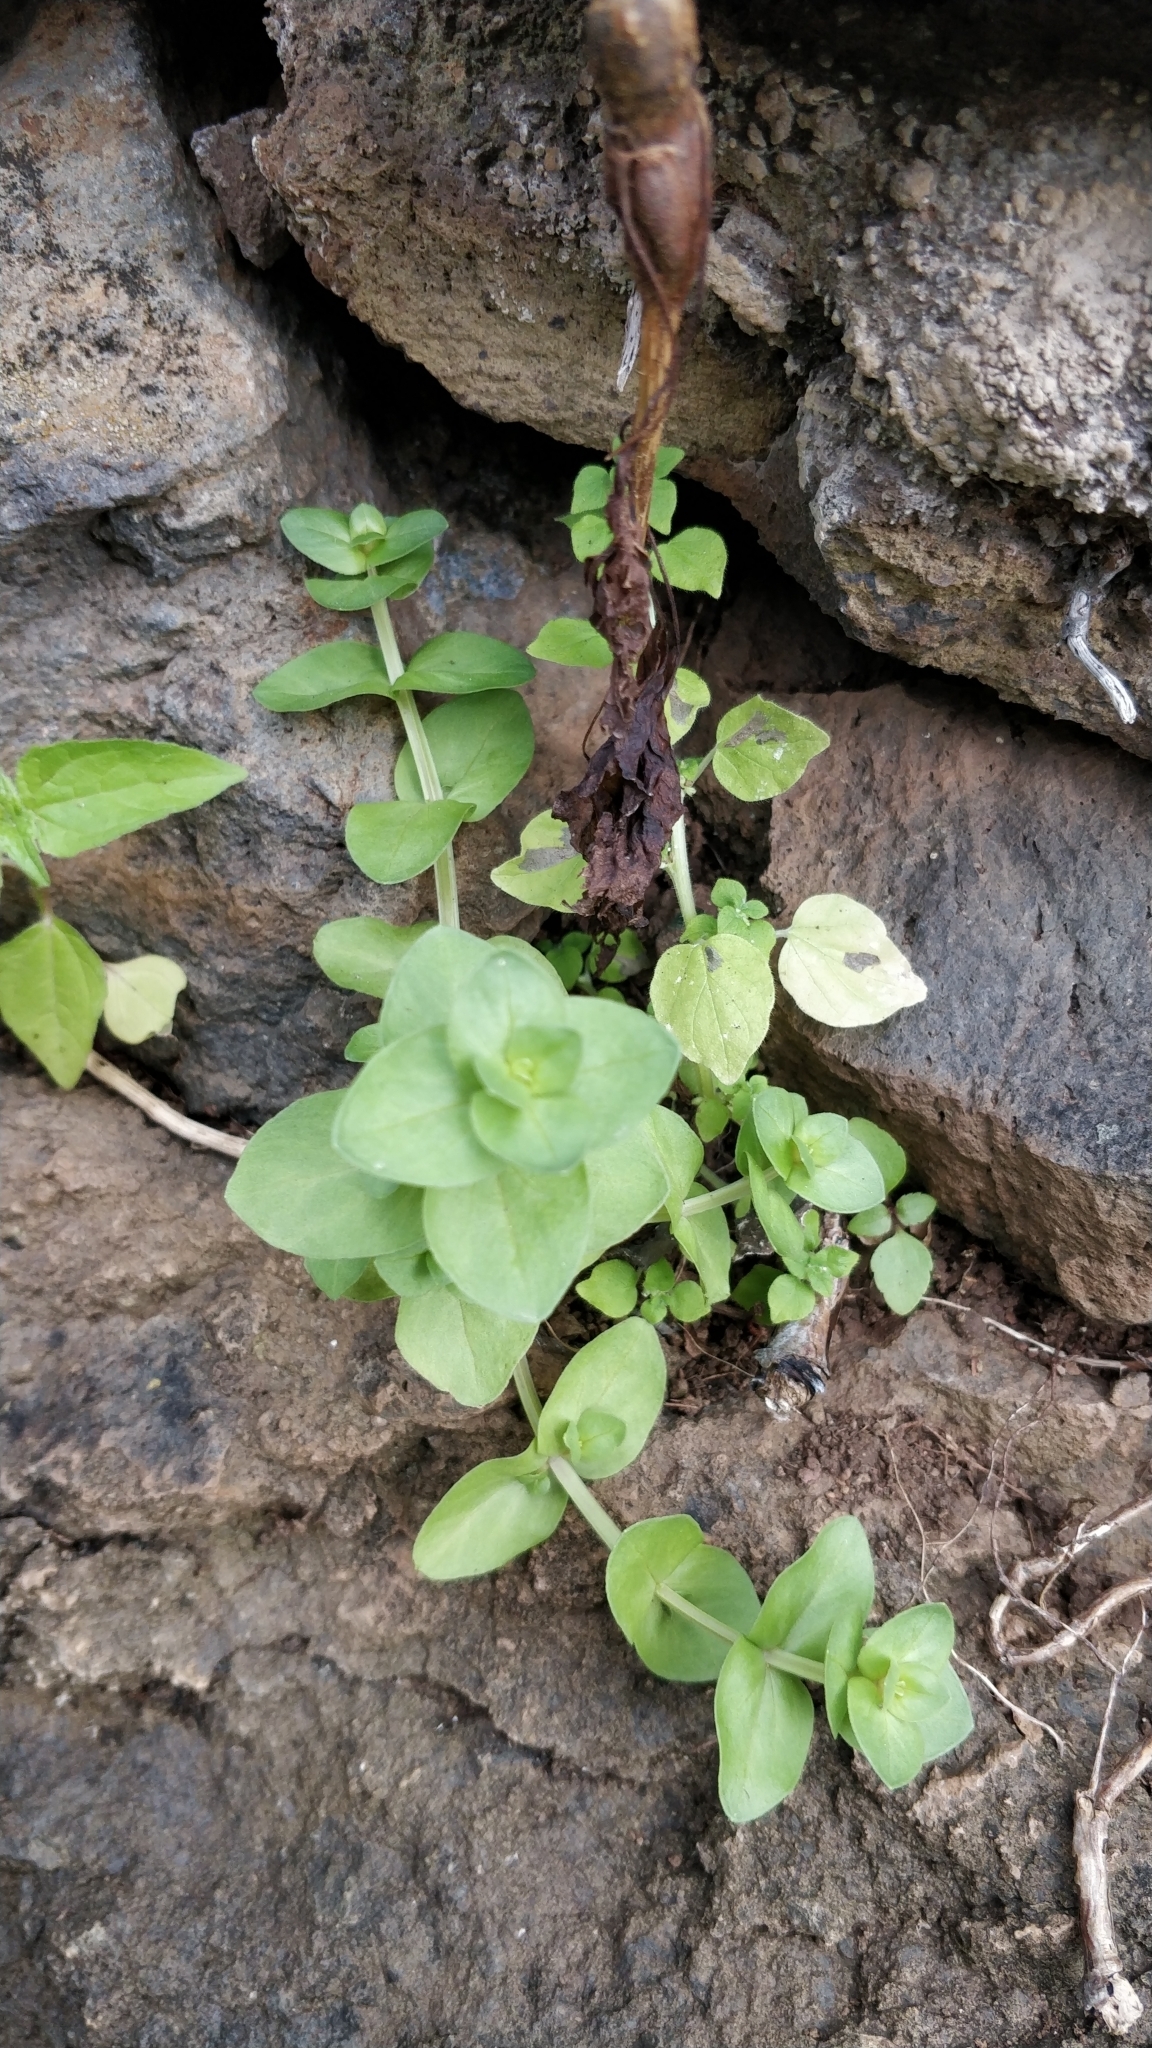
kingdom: Plantae
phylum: Tracheophyta
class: Magnoliopsida
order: Ericales
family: Primulaceae
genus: Lysimachia
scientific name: Lysimachia arvensis
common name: Scarlet pimpernel
